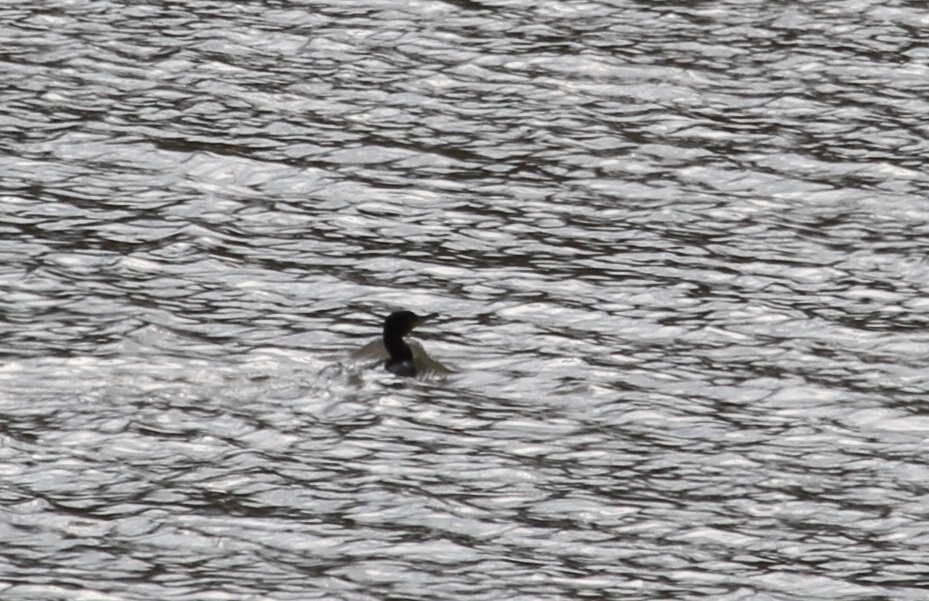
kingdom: Animalia
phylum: Chordata
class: Aves
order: Suliformes
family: Phalacrocoracidae
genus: Phalacrocorax
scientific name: Phalacrocorax carbo
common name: Great cormorant
